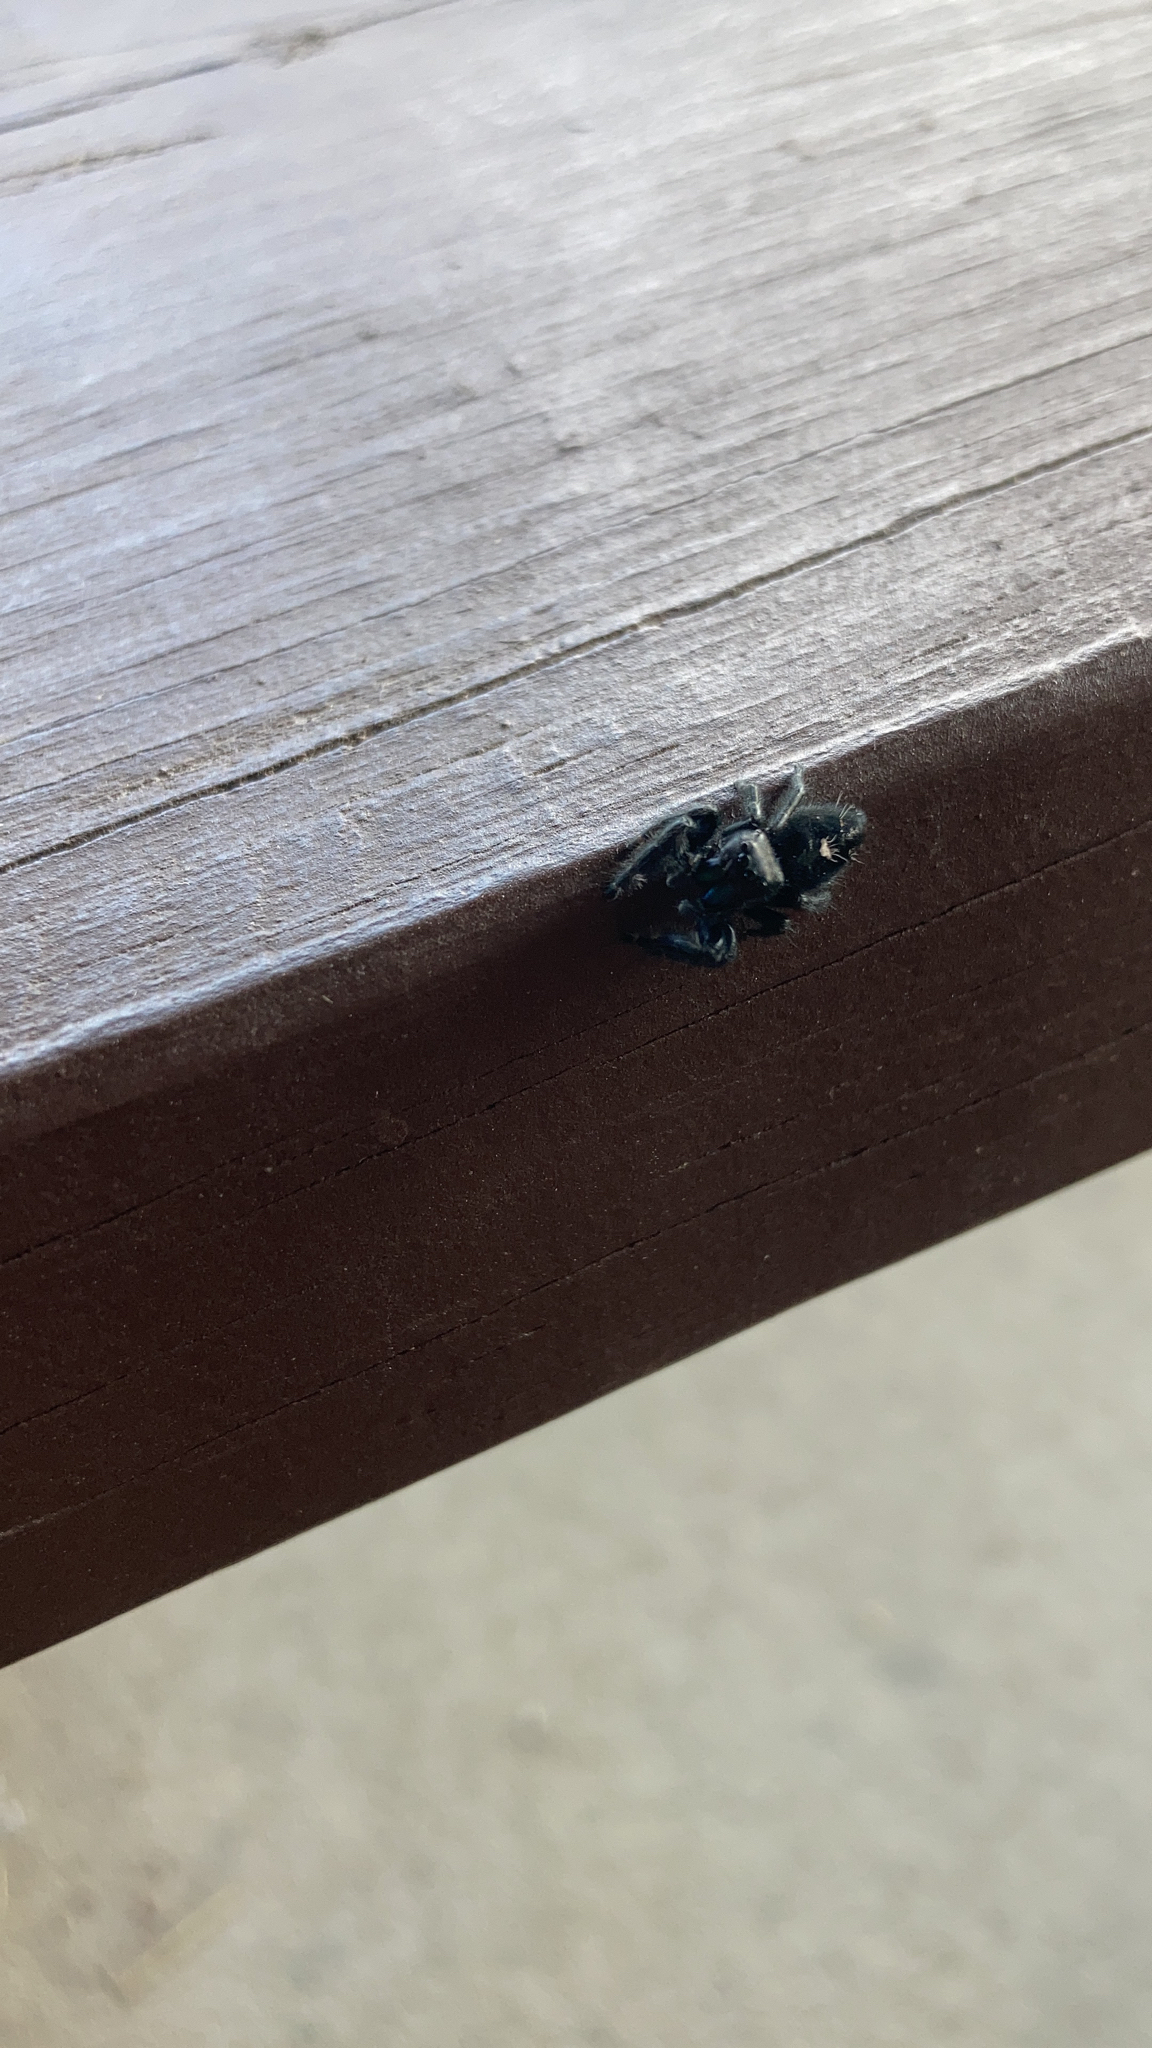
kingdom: Animalia
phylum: Arthropoda
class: Arachnida
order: Araneae
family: Salticidae
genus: Phidippus
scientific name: Phidippus audax
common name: Bold jumper
